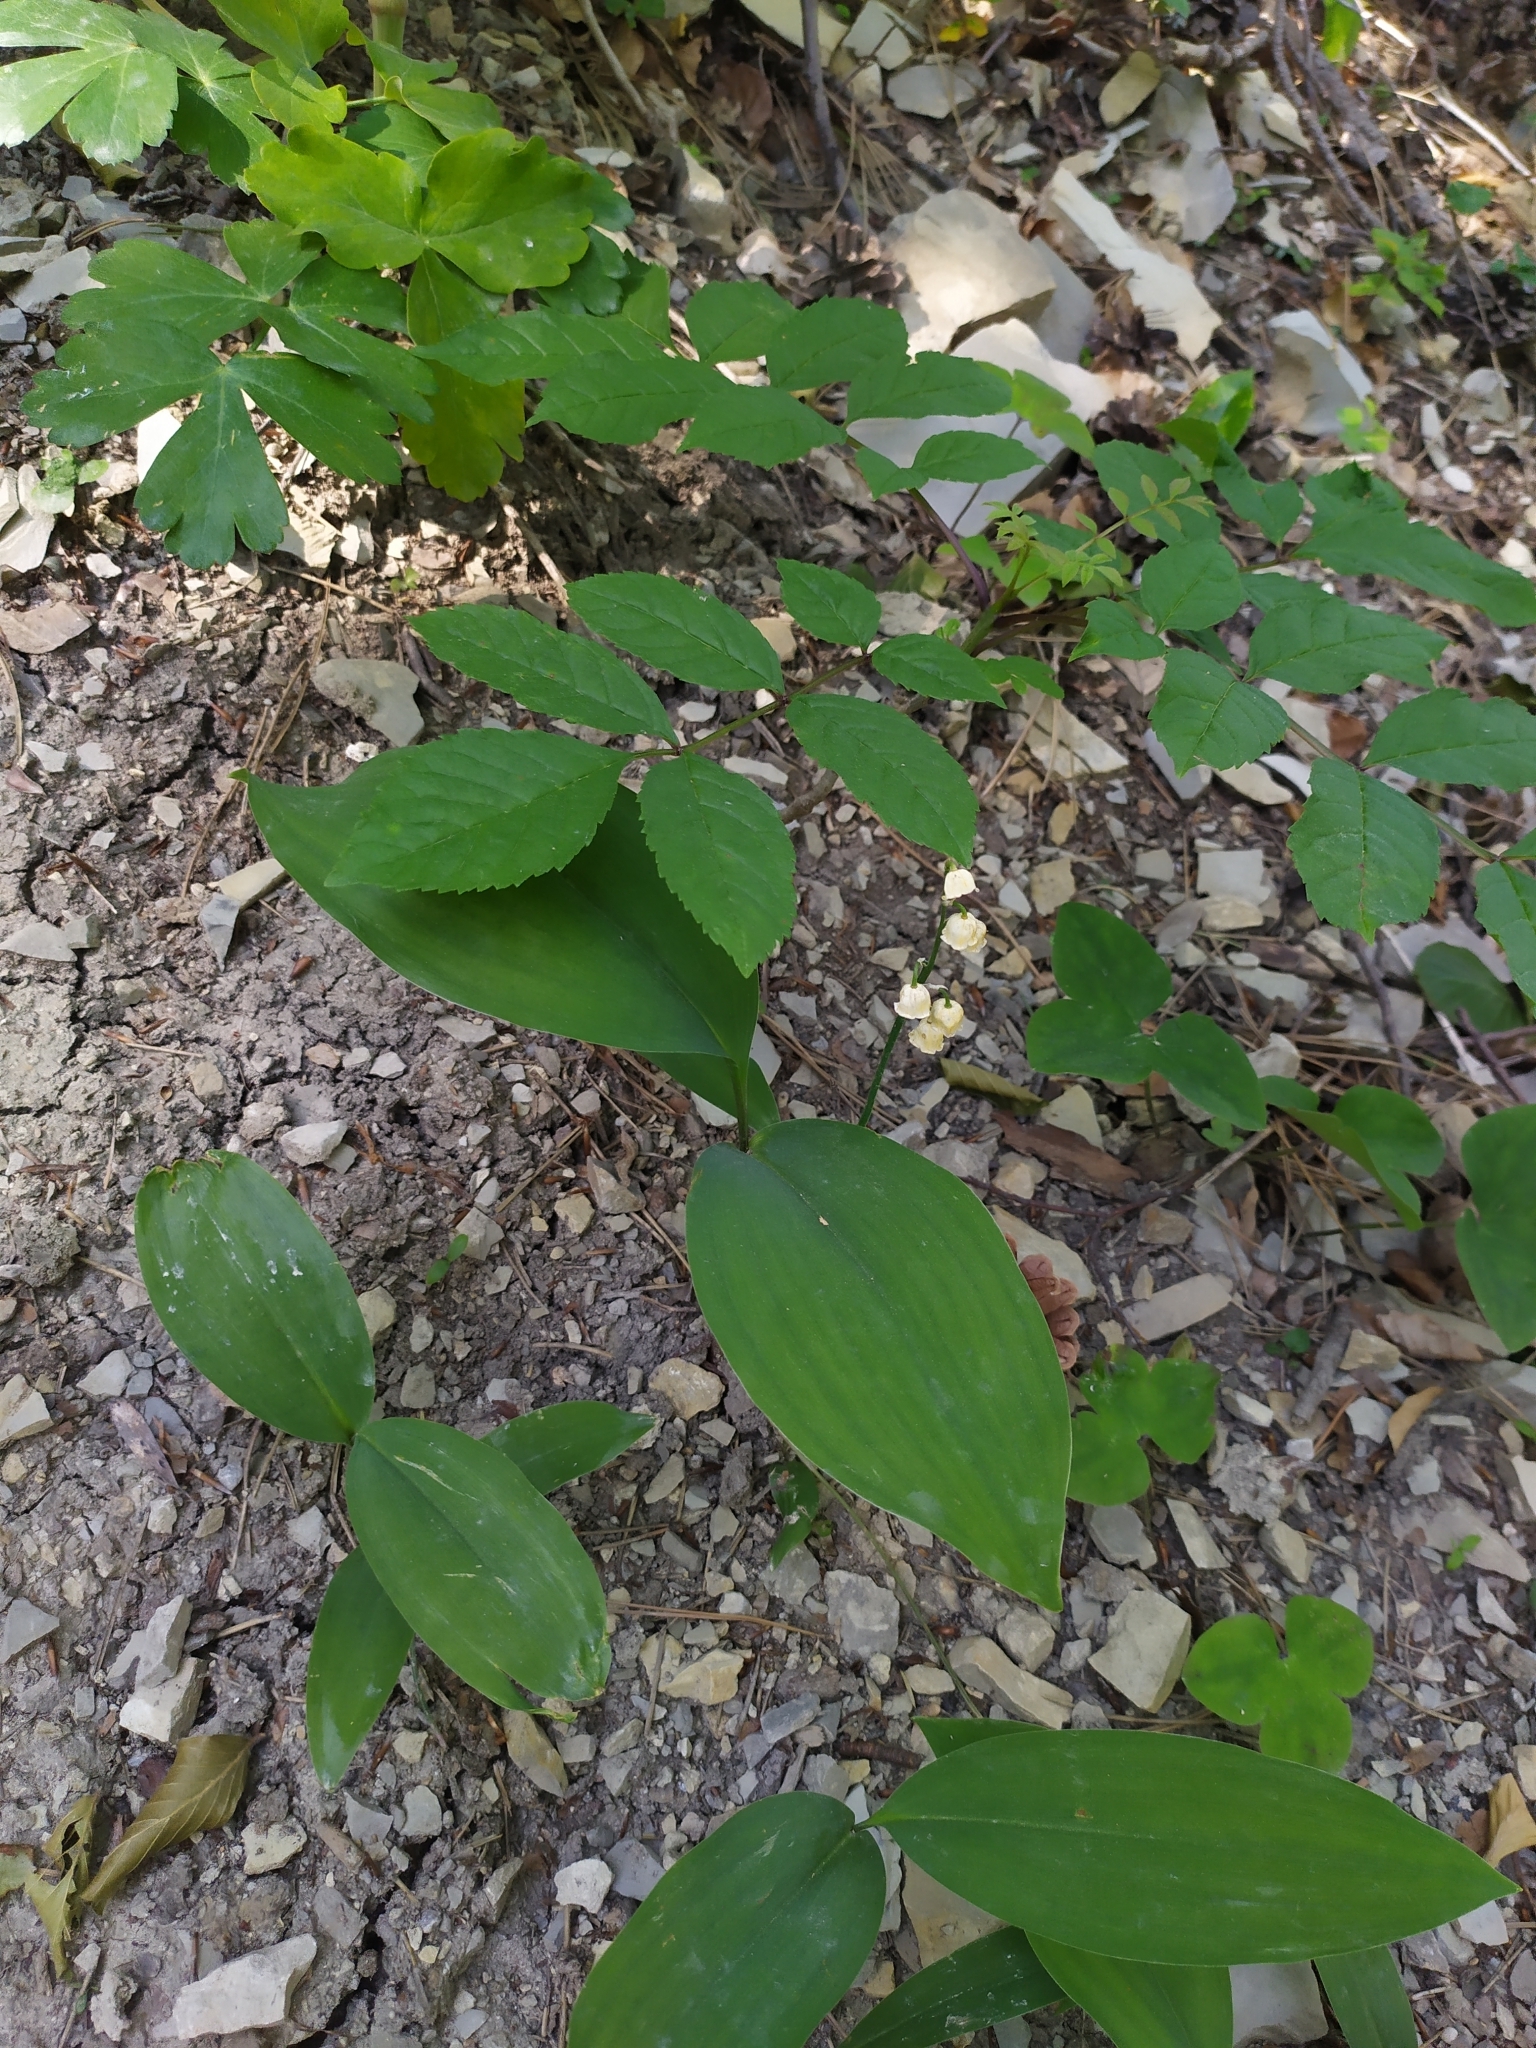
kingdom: Plantae
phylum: Tracheophyta
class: Liliopsida
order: Asparagales
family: Asparagaceae
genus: Convallaria
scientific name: Convallaria majalis
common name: Lily-of-the-valley
